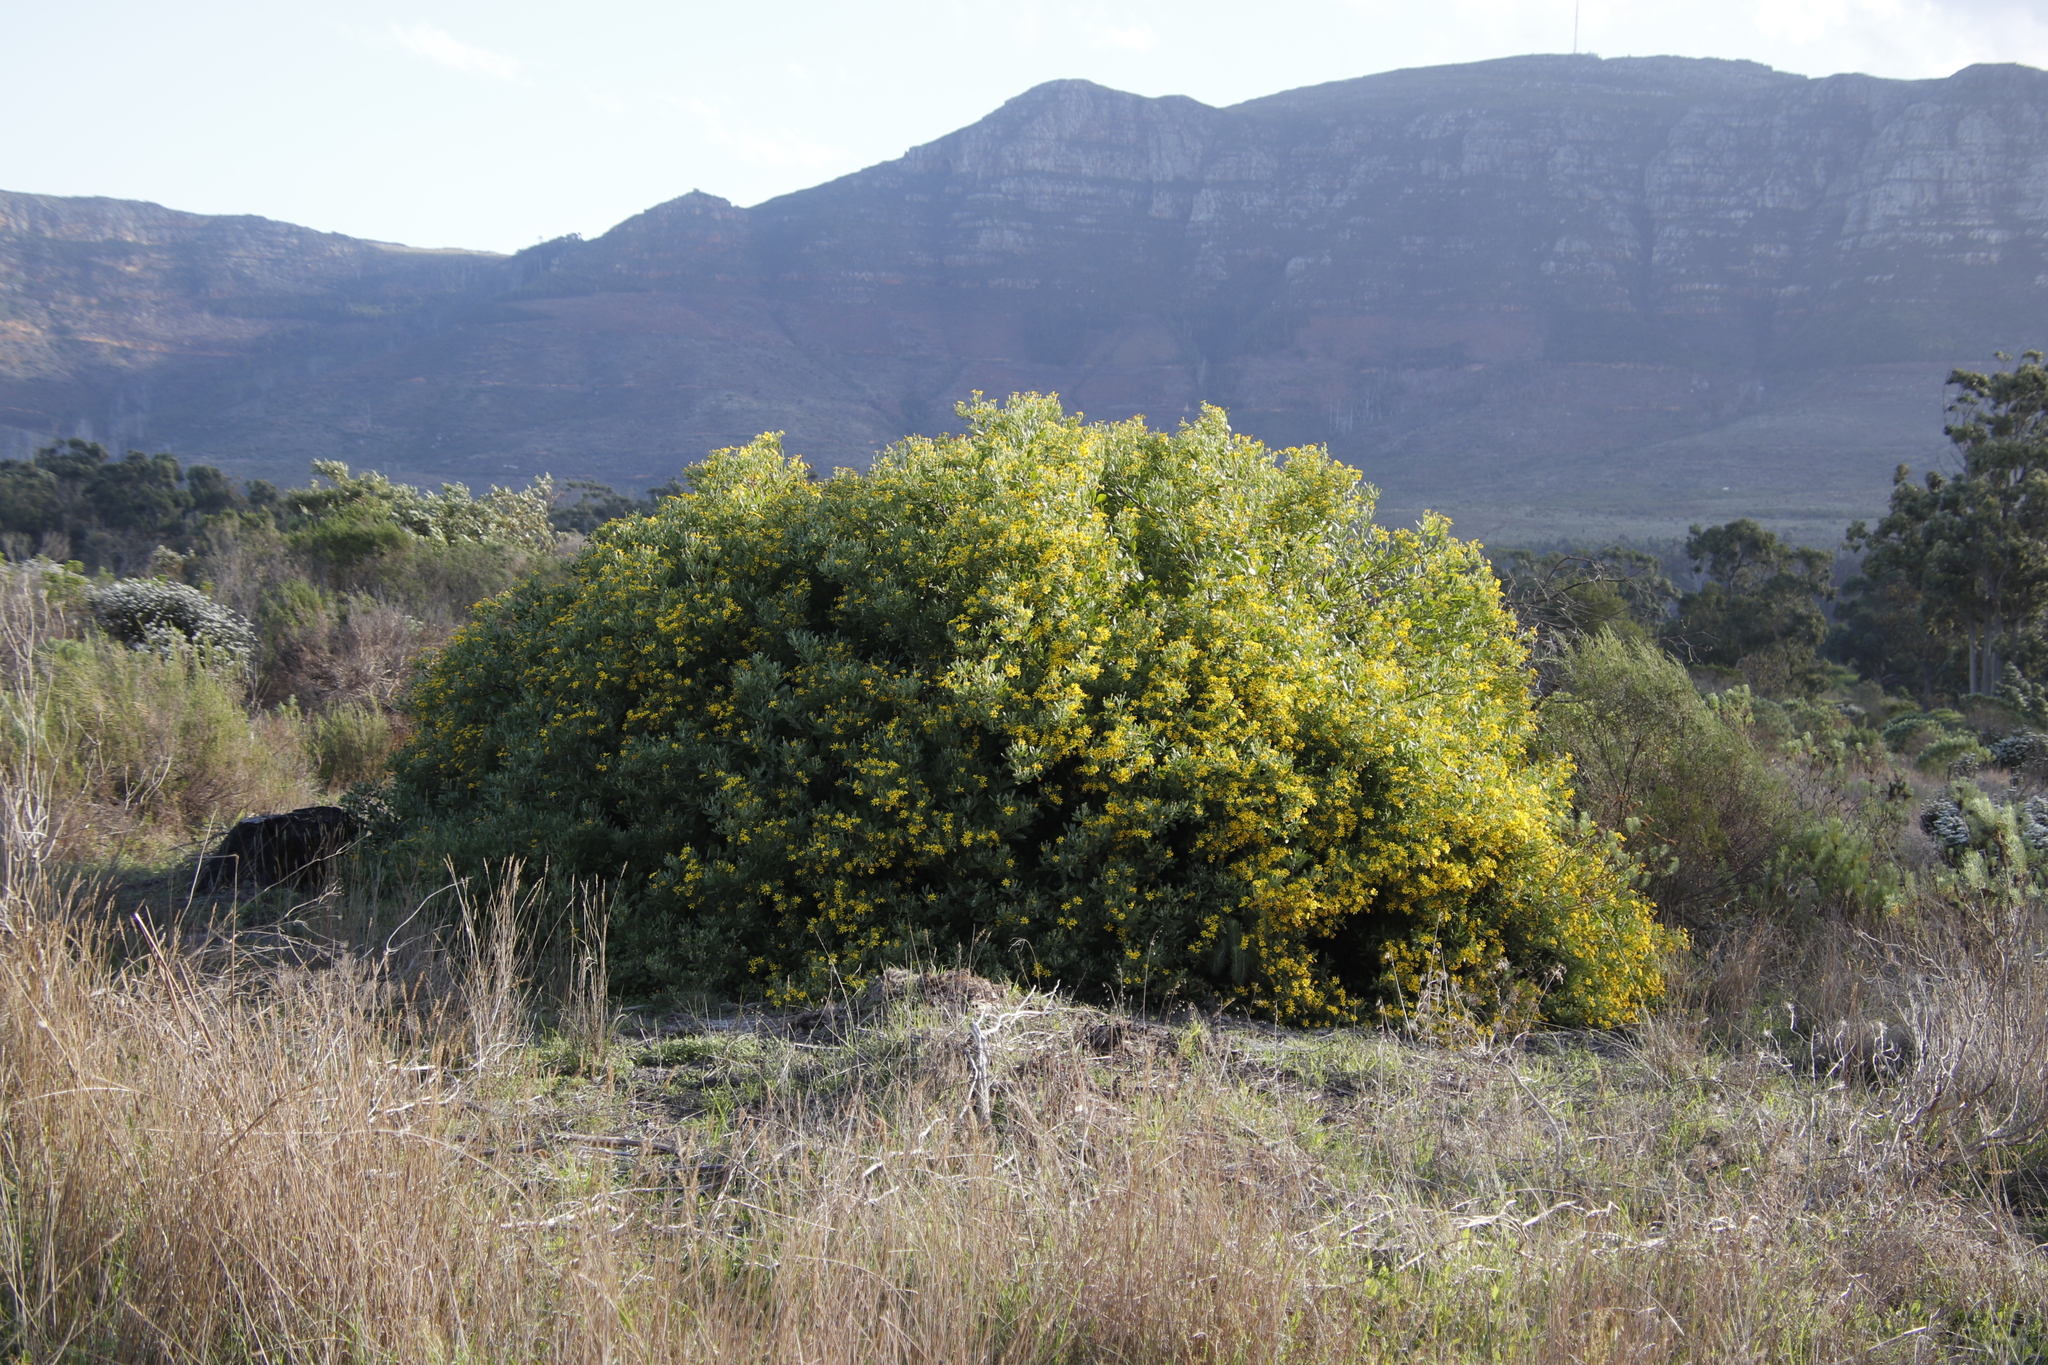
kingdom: Plantae
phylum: Tracheophyta
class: Magnoliopsida
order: Asterales
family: Asteraceae
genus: Osteospermum
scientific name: Osteospermum moniliferum
